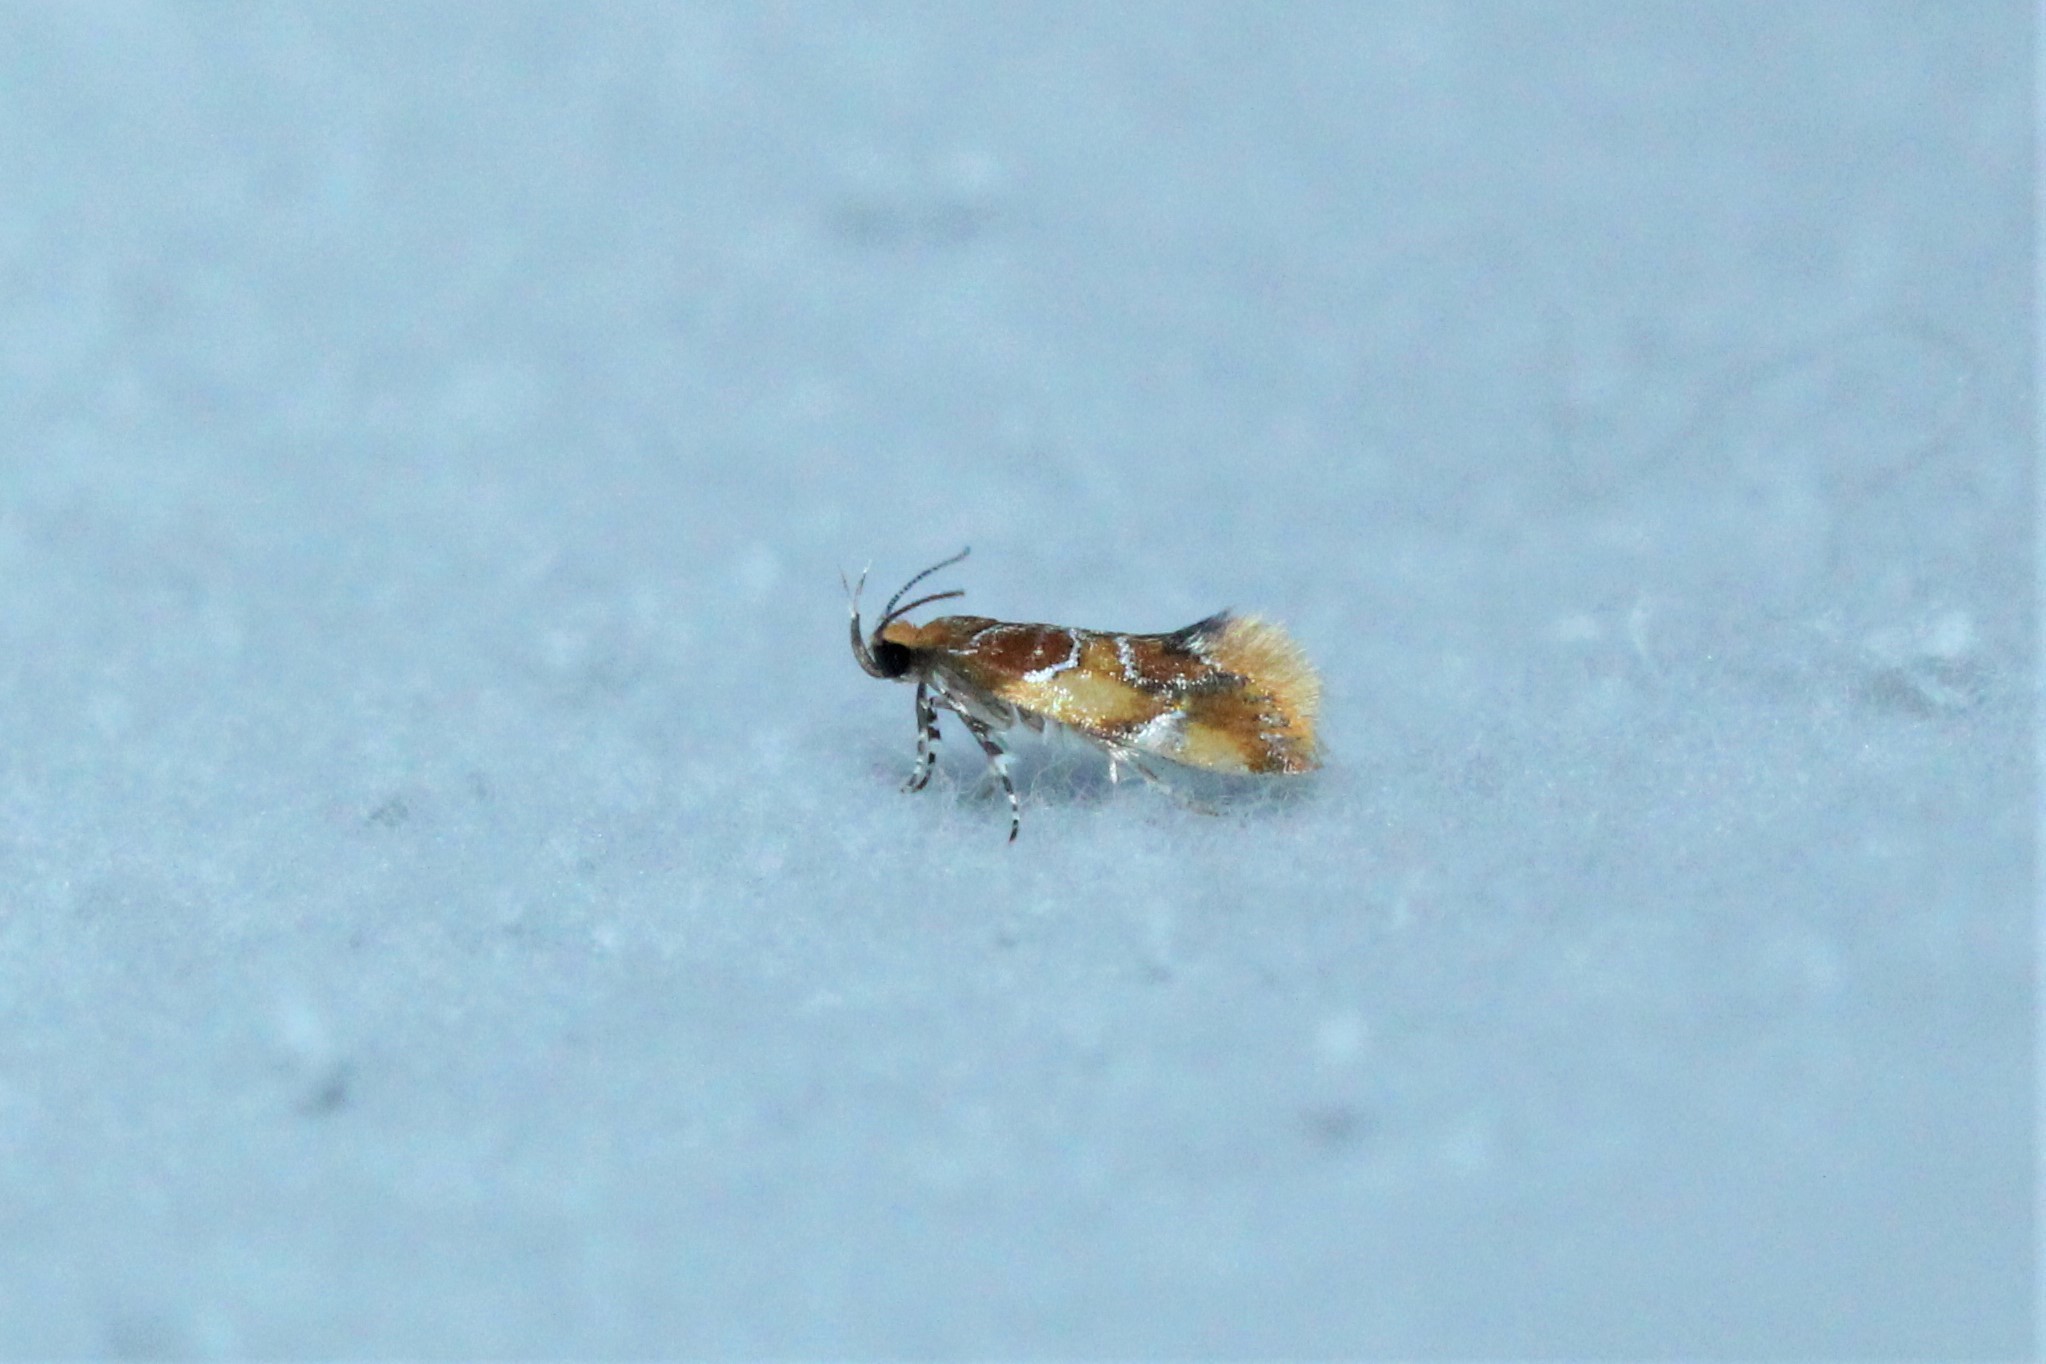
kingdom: Animalia
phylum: Arthropoda
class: Insecta
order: Lepidoptera
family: Oecophoridae
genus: Callima
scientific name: Callima argenticinctella
